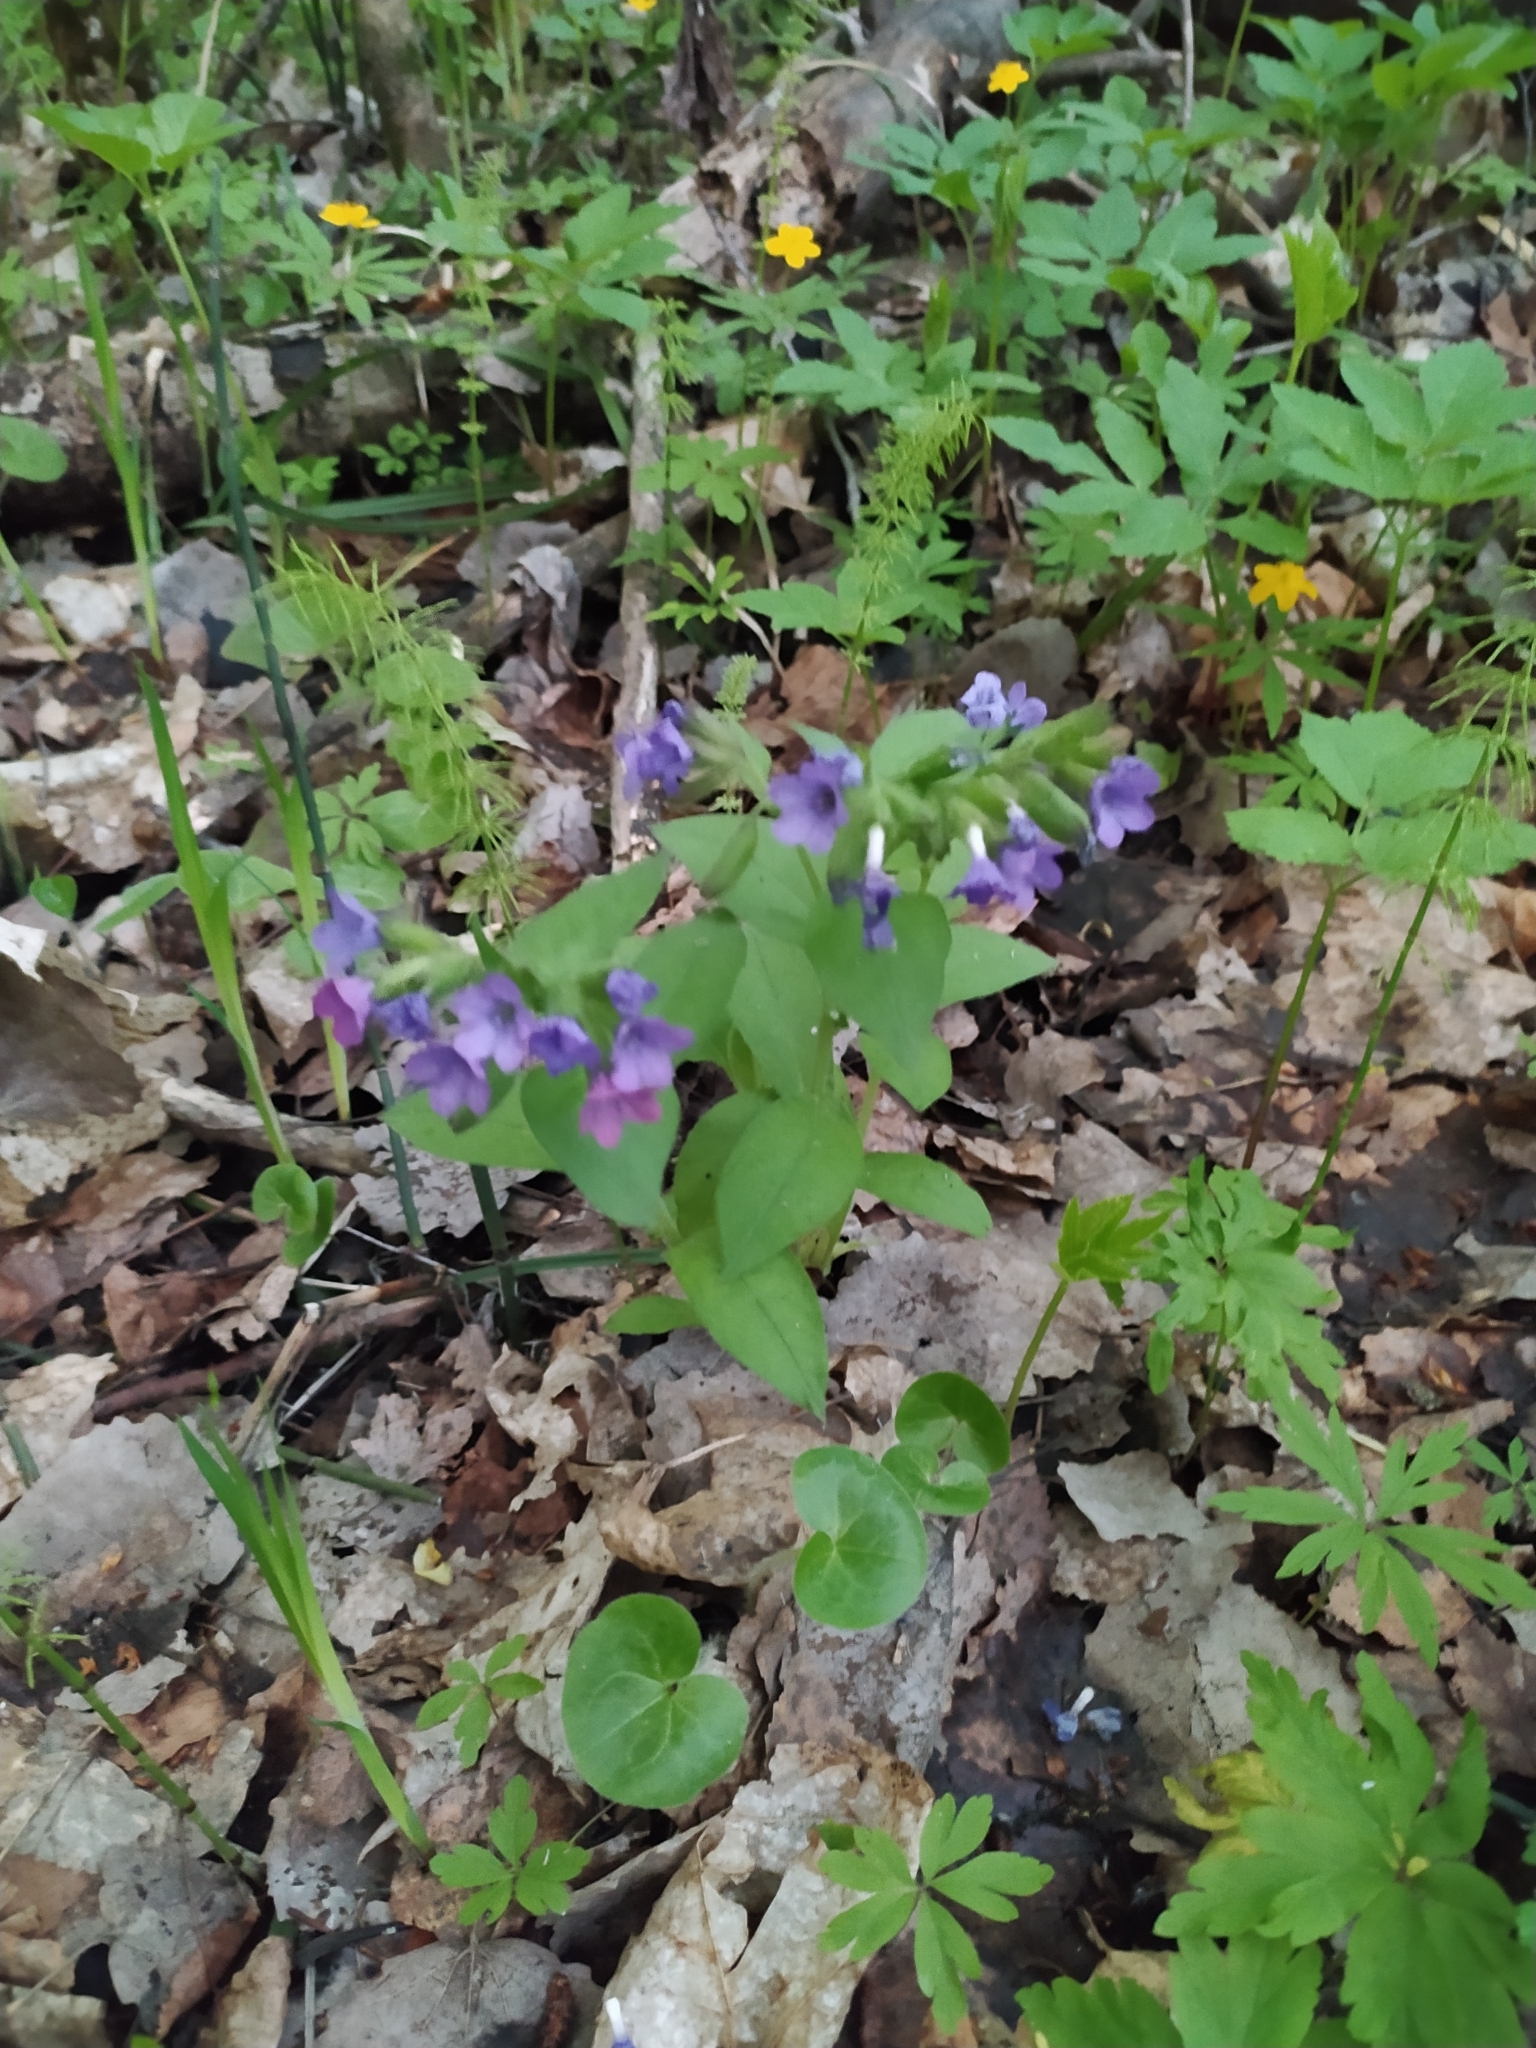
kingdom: Plantae
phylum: Tracheophyta
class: Magnoliopsida
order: Boraginales
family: Boraginaceae
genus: Pulmonaria
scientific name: Pulmonaria obscura
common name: Suffolk lungwort
